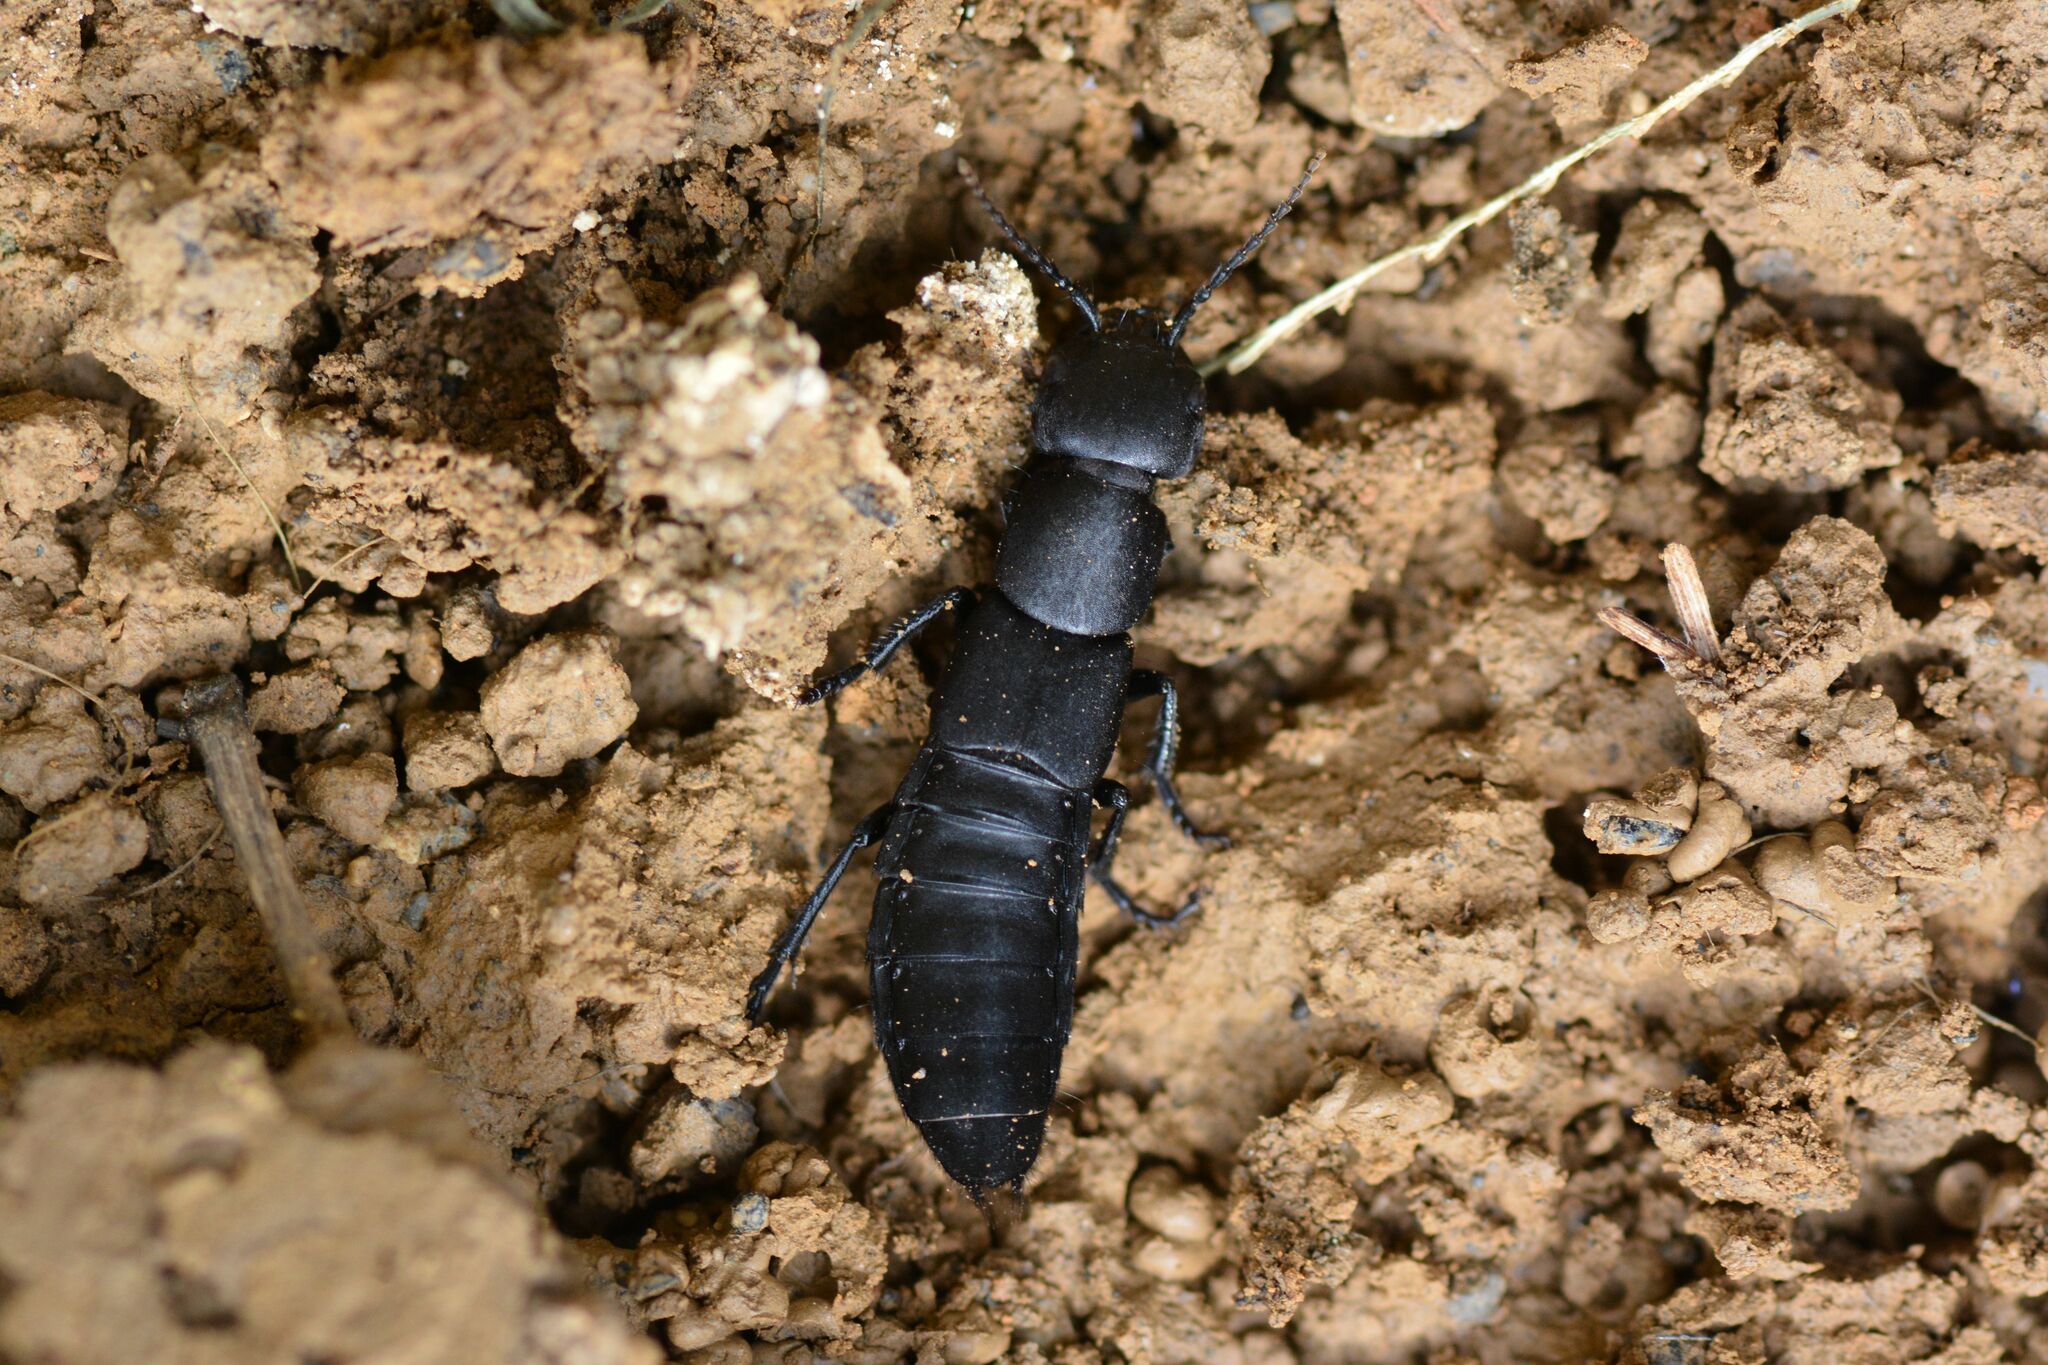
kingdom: Animalia
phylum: Arthropoda
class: Insecta
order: Coleoptera
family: Staphylinidae
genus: Ocypus
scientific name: Ocypus olens
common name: Devil's coach-horse
